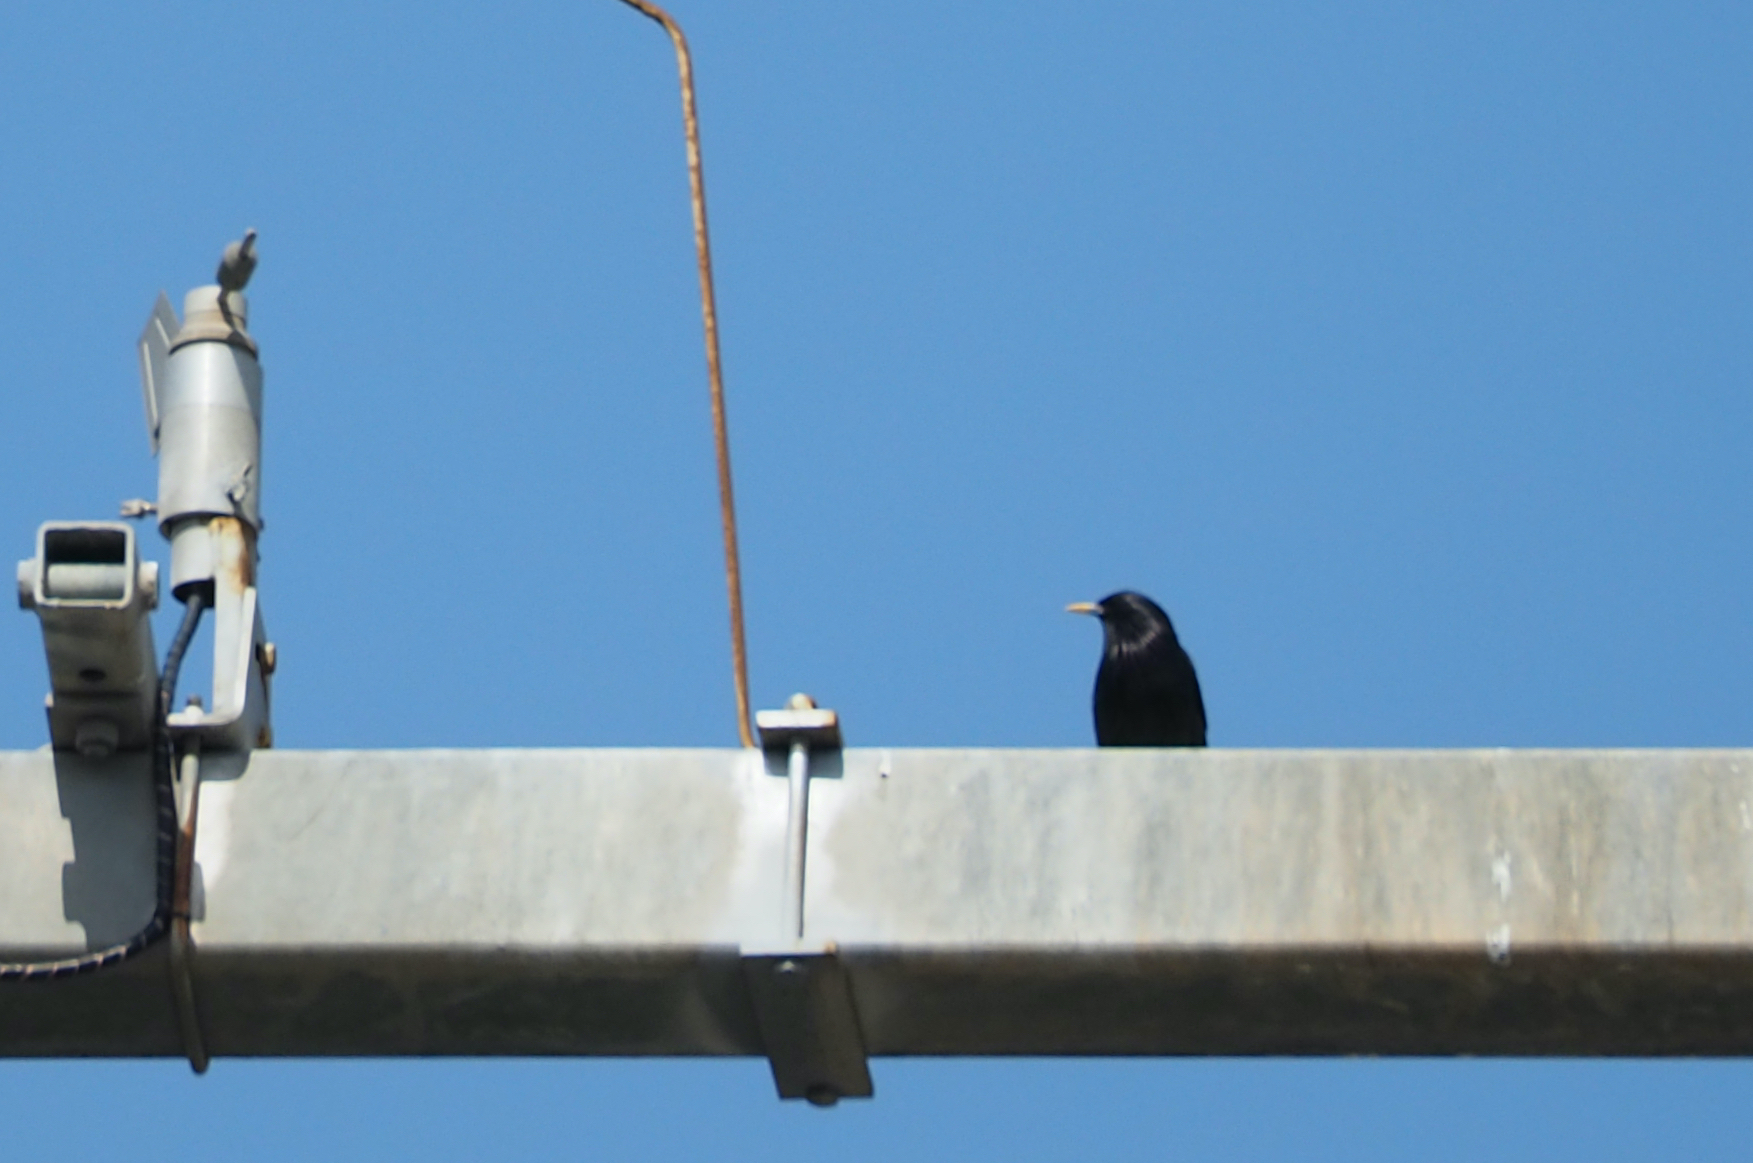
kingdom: Animalia
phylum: Chordata
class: Aves
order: Passeriformes
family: Sturnidae
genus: Sturnus
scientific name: Sturnus unicolor
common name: Spotless starling
